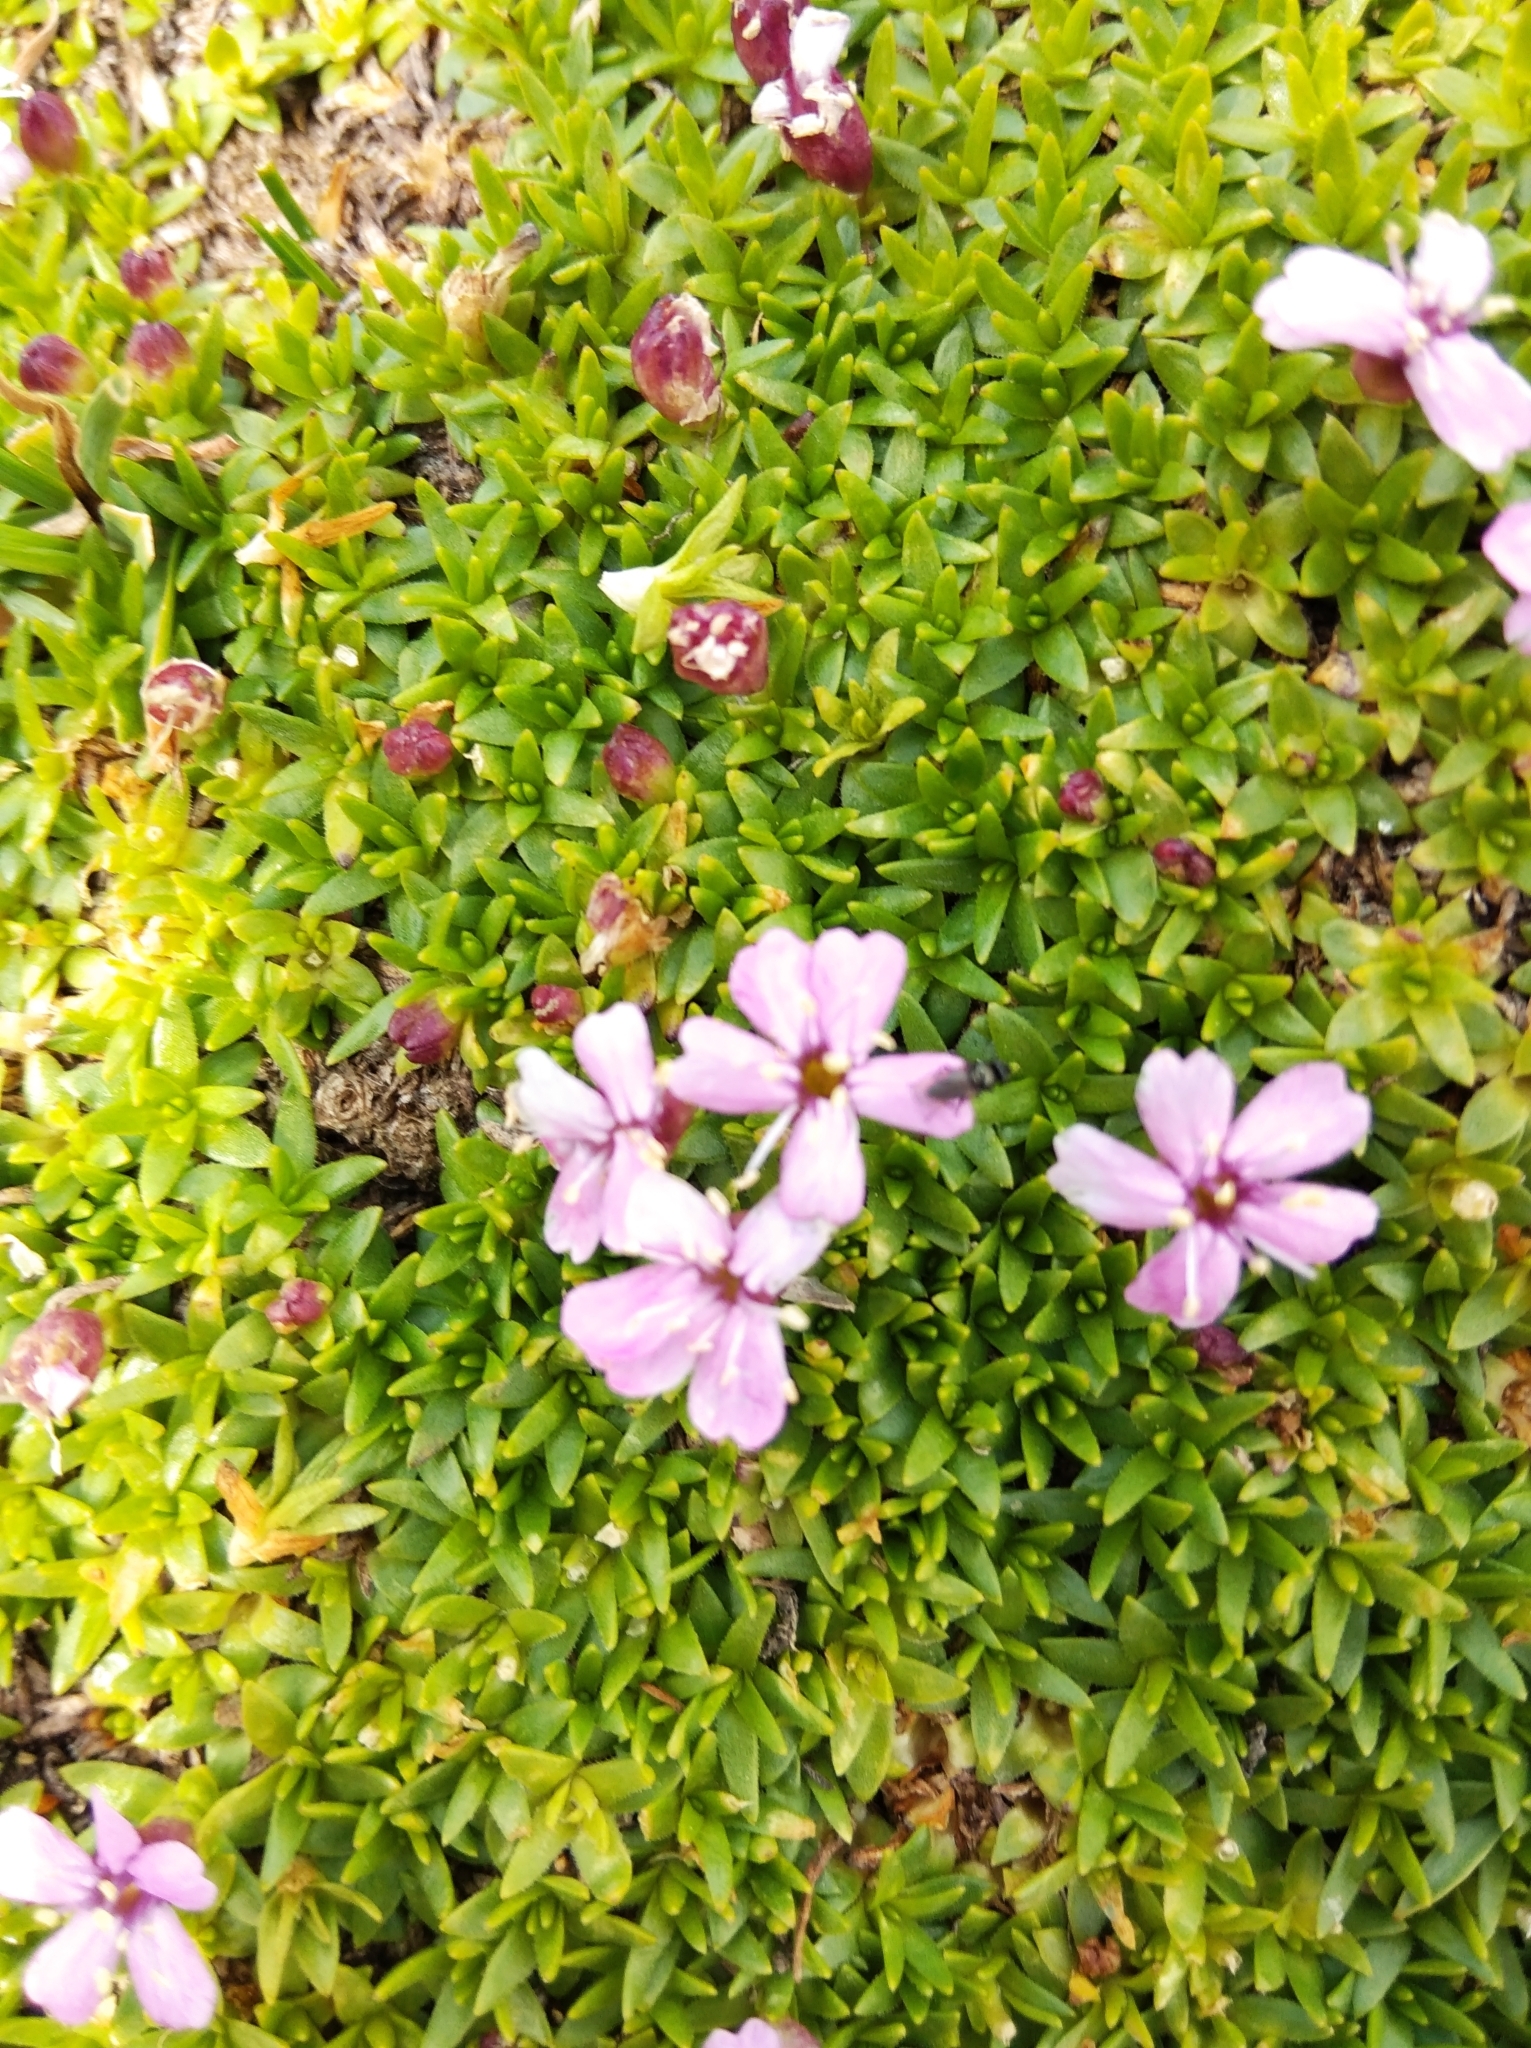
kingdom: Plantae
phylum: Tracheophyta
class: Magnoliopsida
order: Caryophyllales
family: Caryophyllaceae
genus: Silene
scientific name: Silene acaulis
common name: Moss campion
